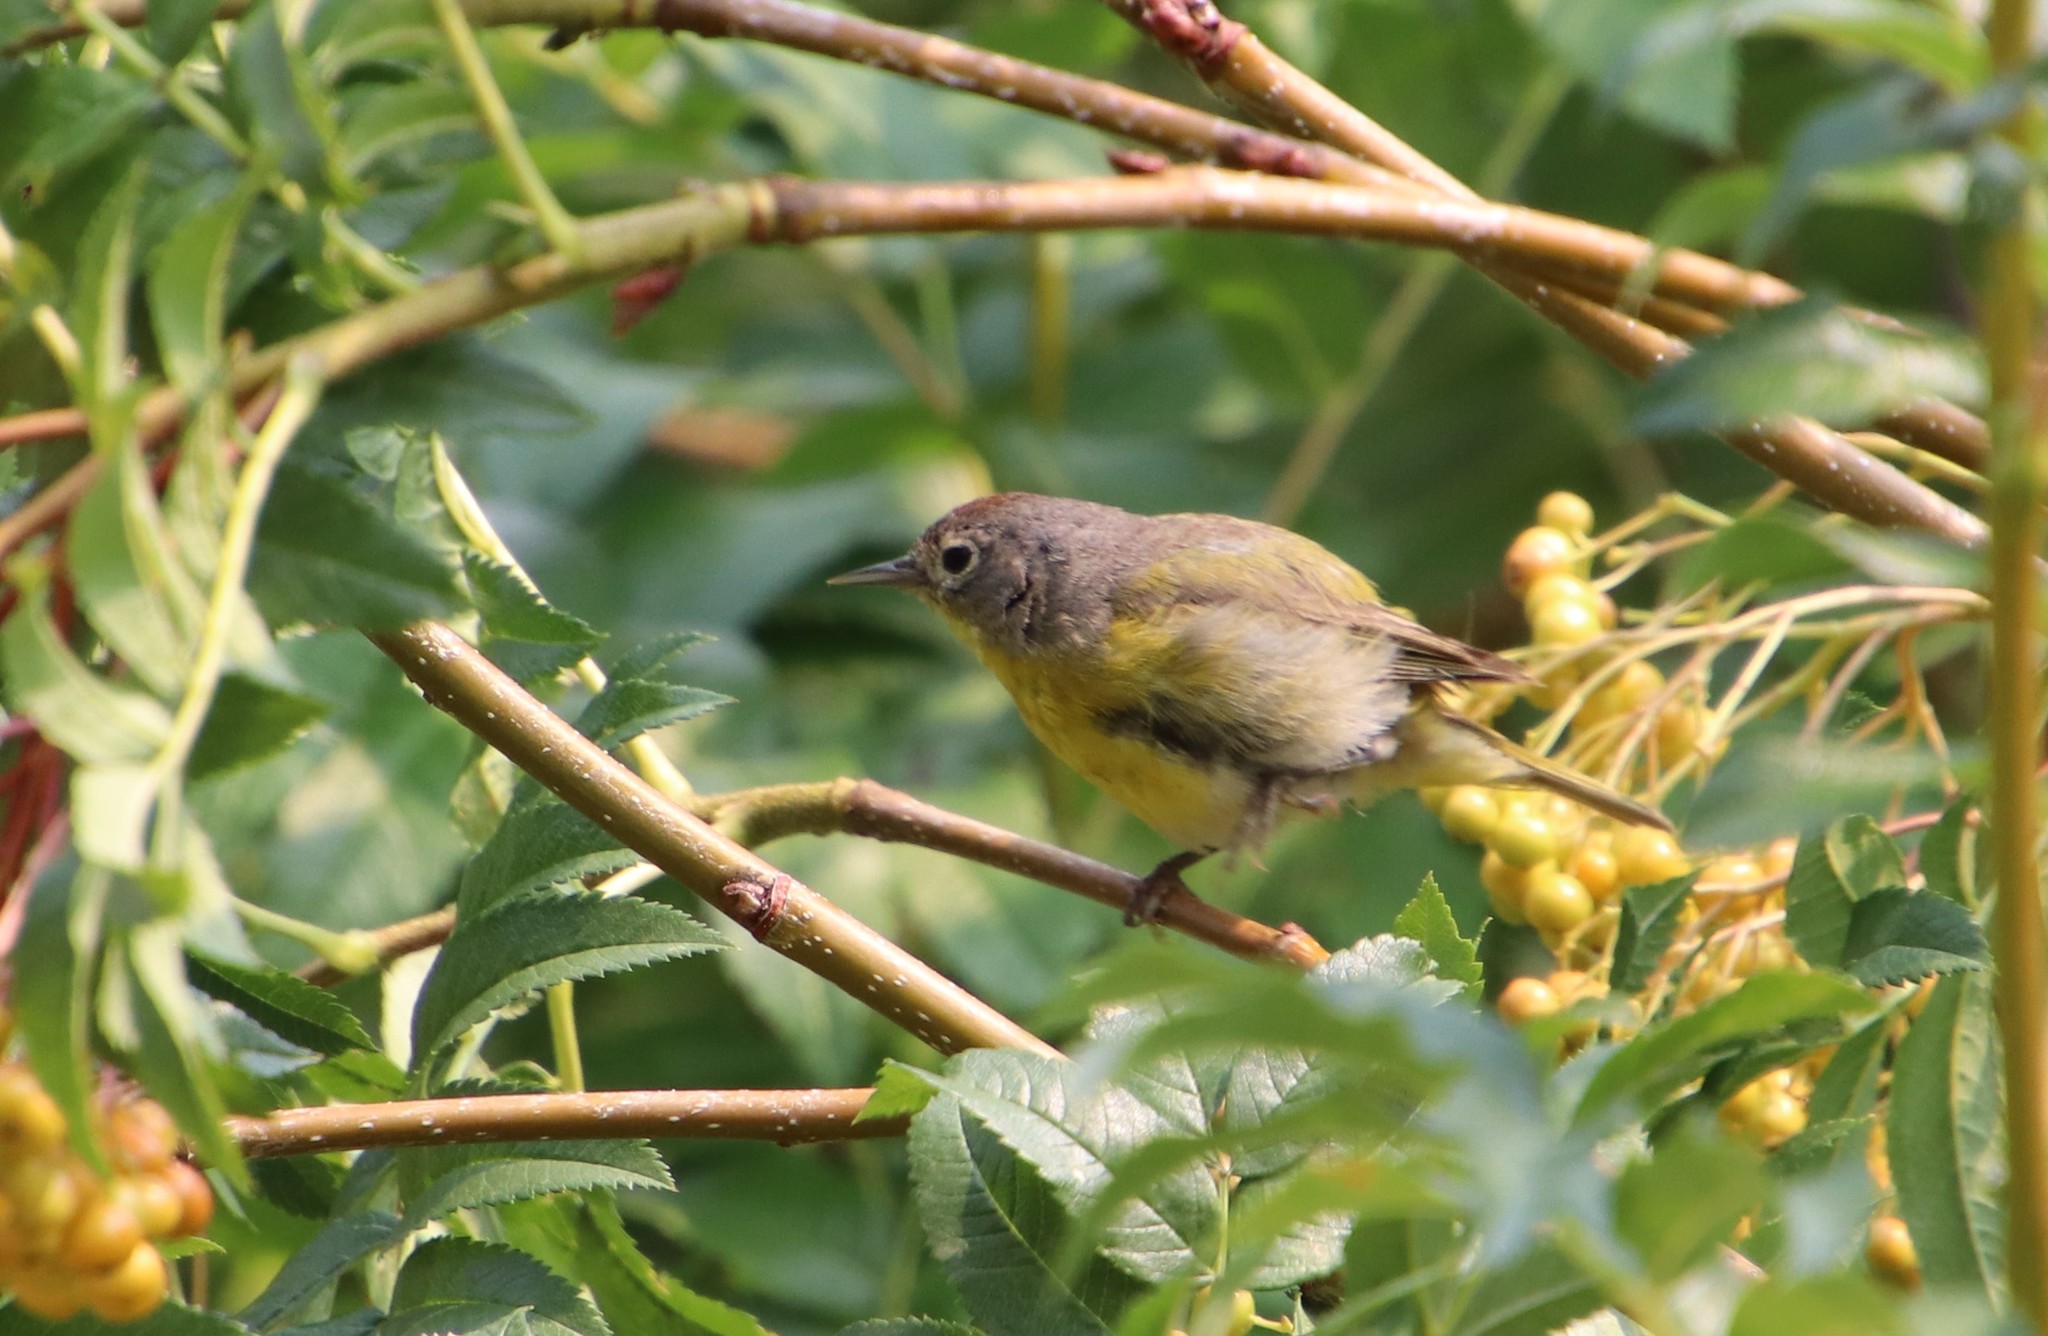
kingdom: Animalia
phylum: Chordata
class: Aves
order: Passeriformes
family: Parulidae
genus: Leiothlypis
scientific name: Leiothlypis ruficapilla
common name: Nashville warbler
